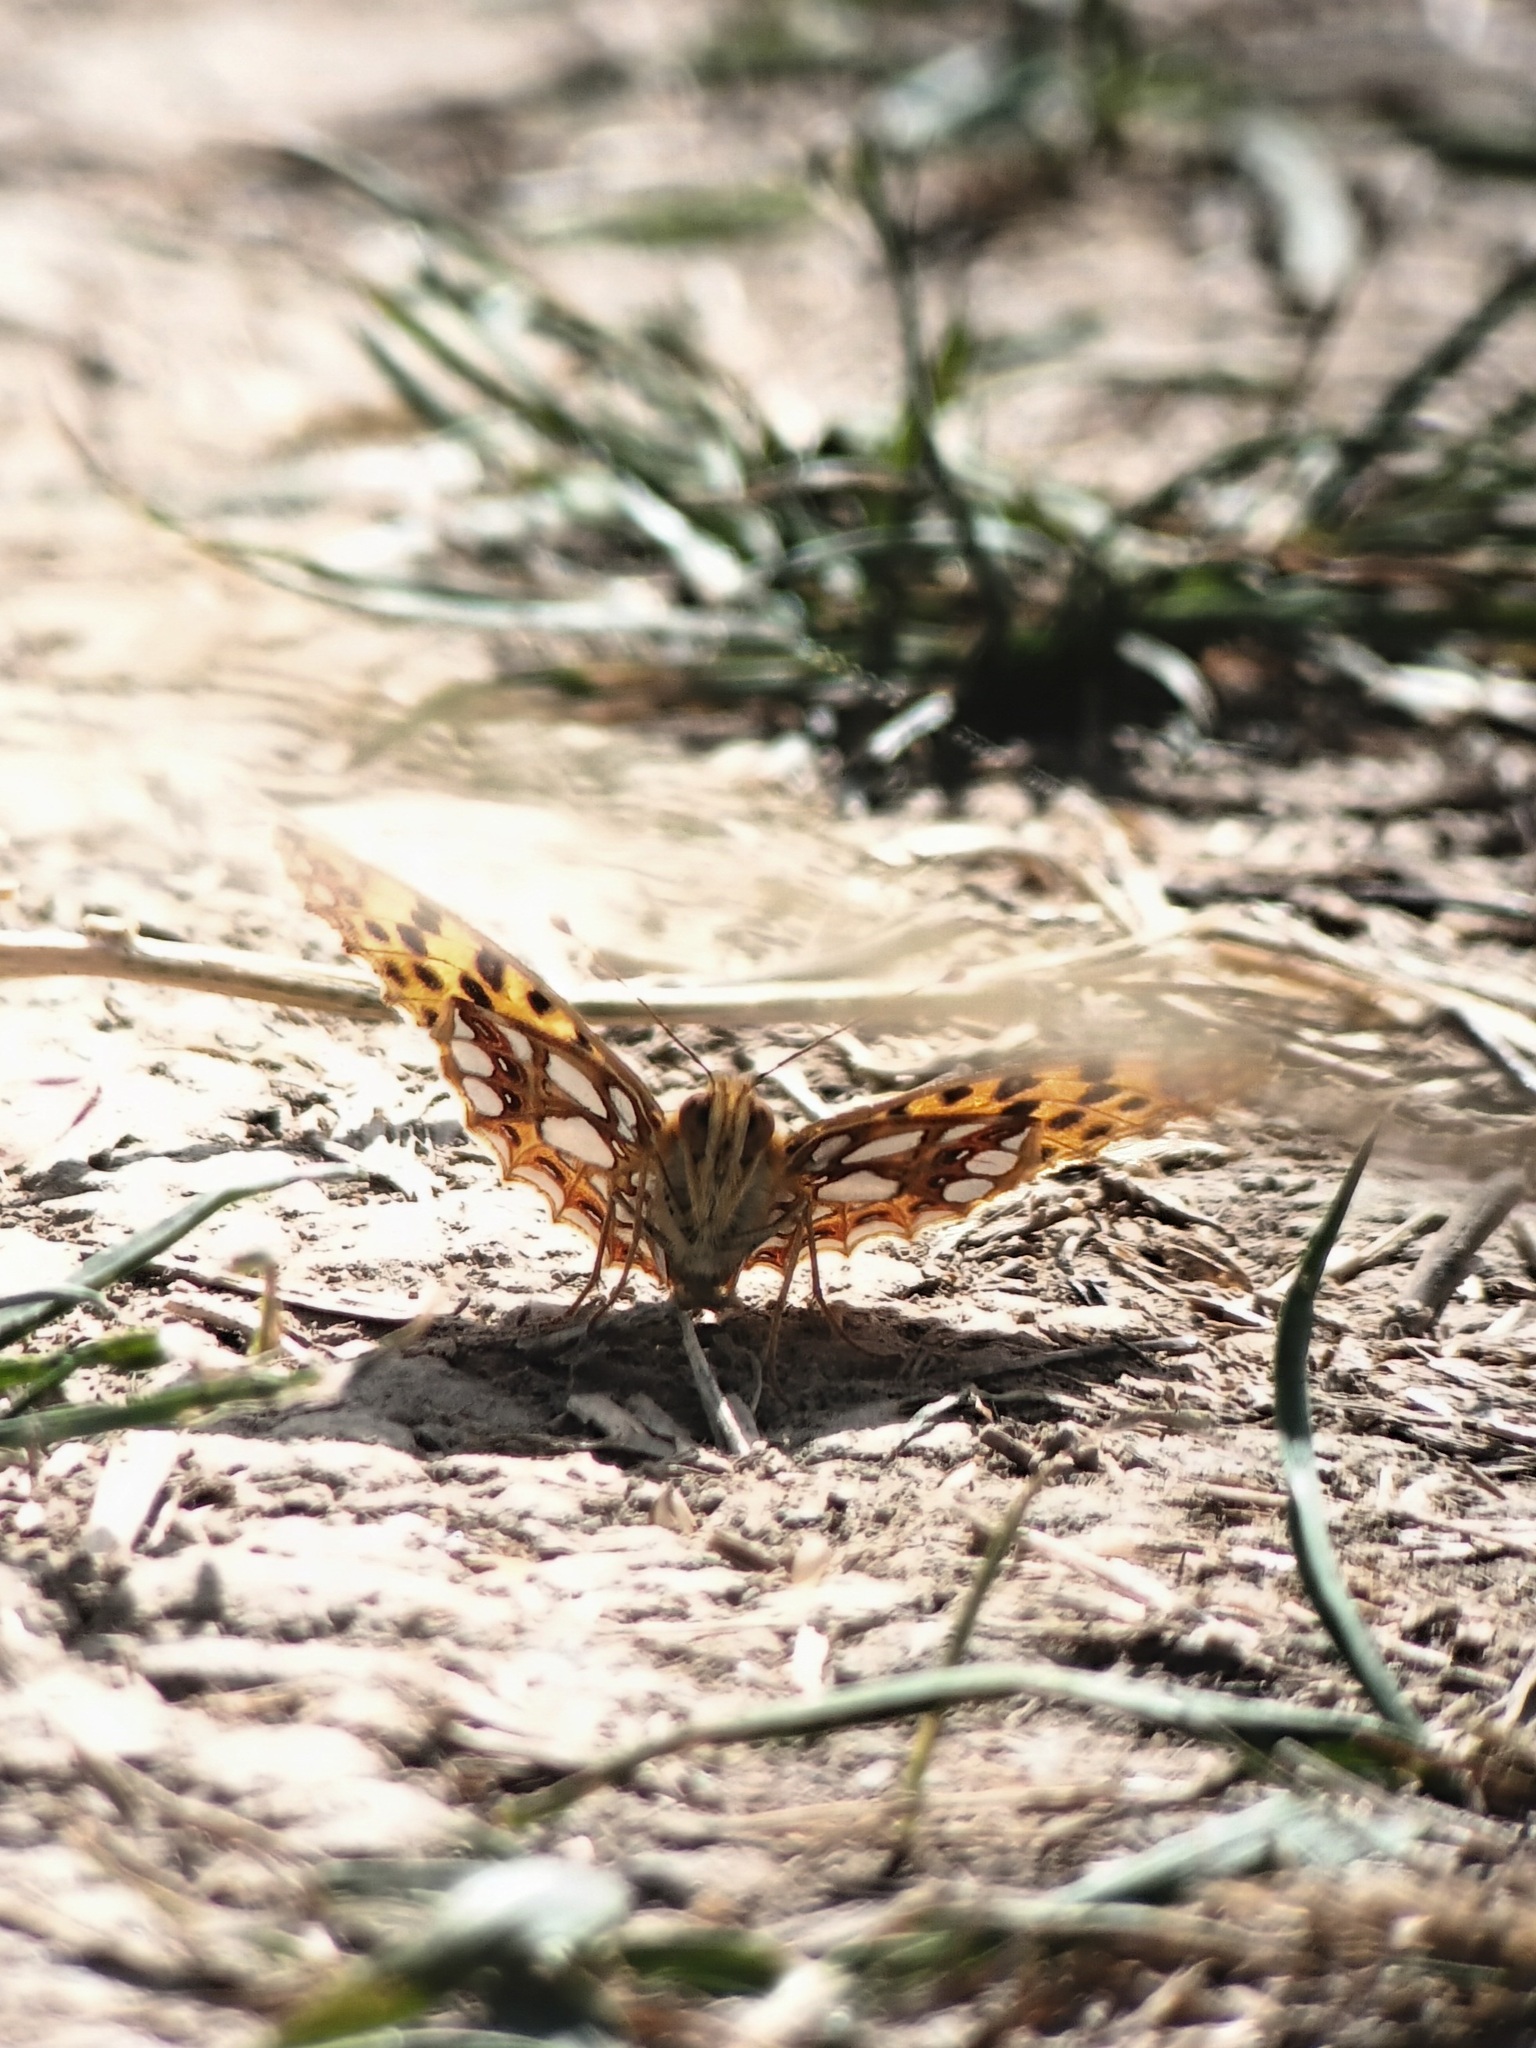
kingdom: Animalia
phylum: Arthropoda
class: Insecta
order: Lepidoptera
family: Nymphalidae
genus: Issoria
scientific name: Issoria lathonia
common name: Queen of spain fritillary
